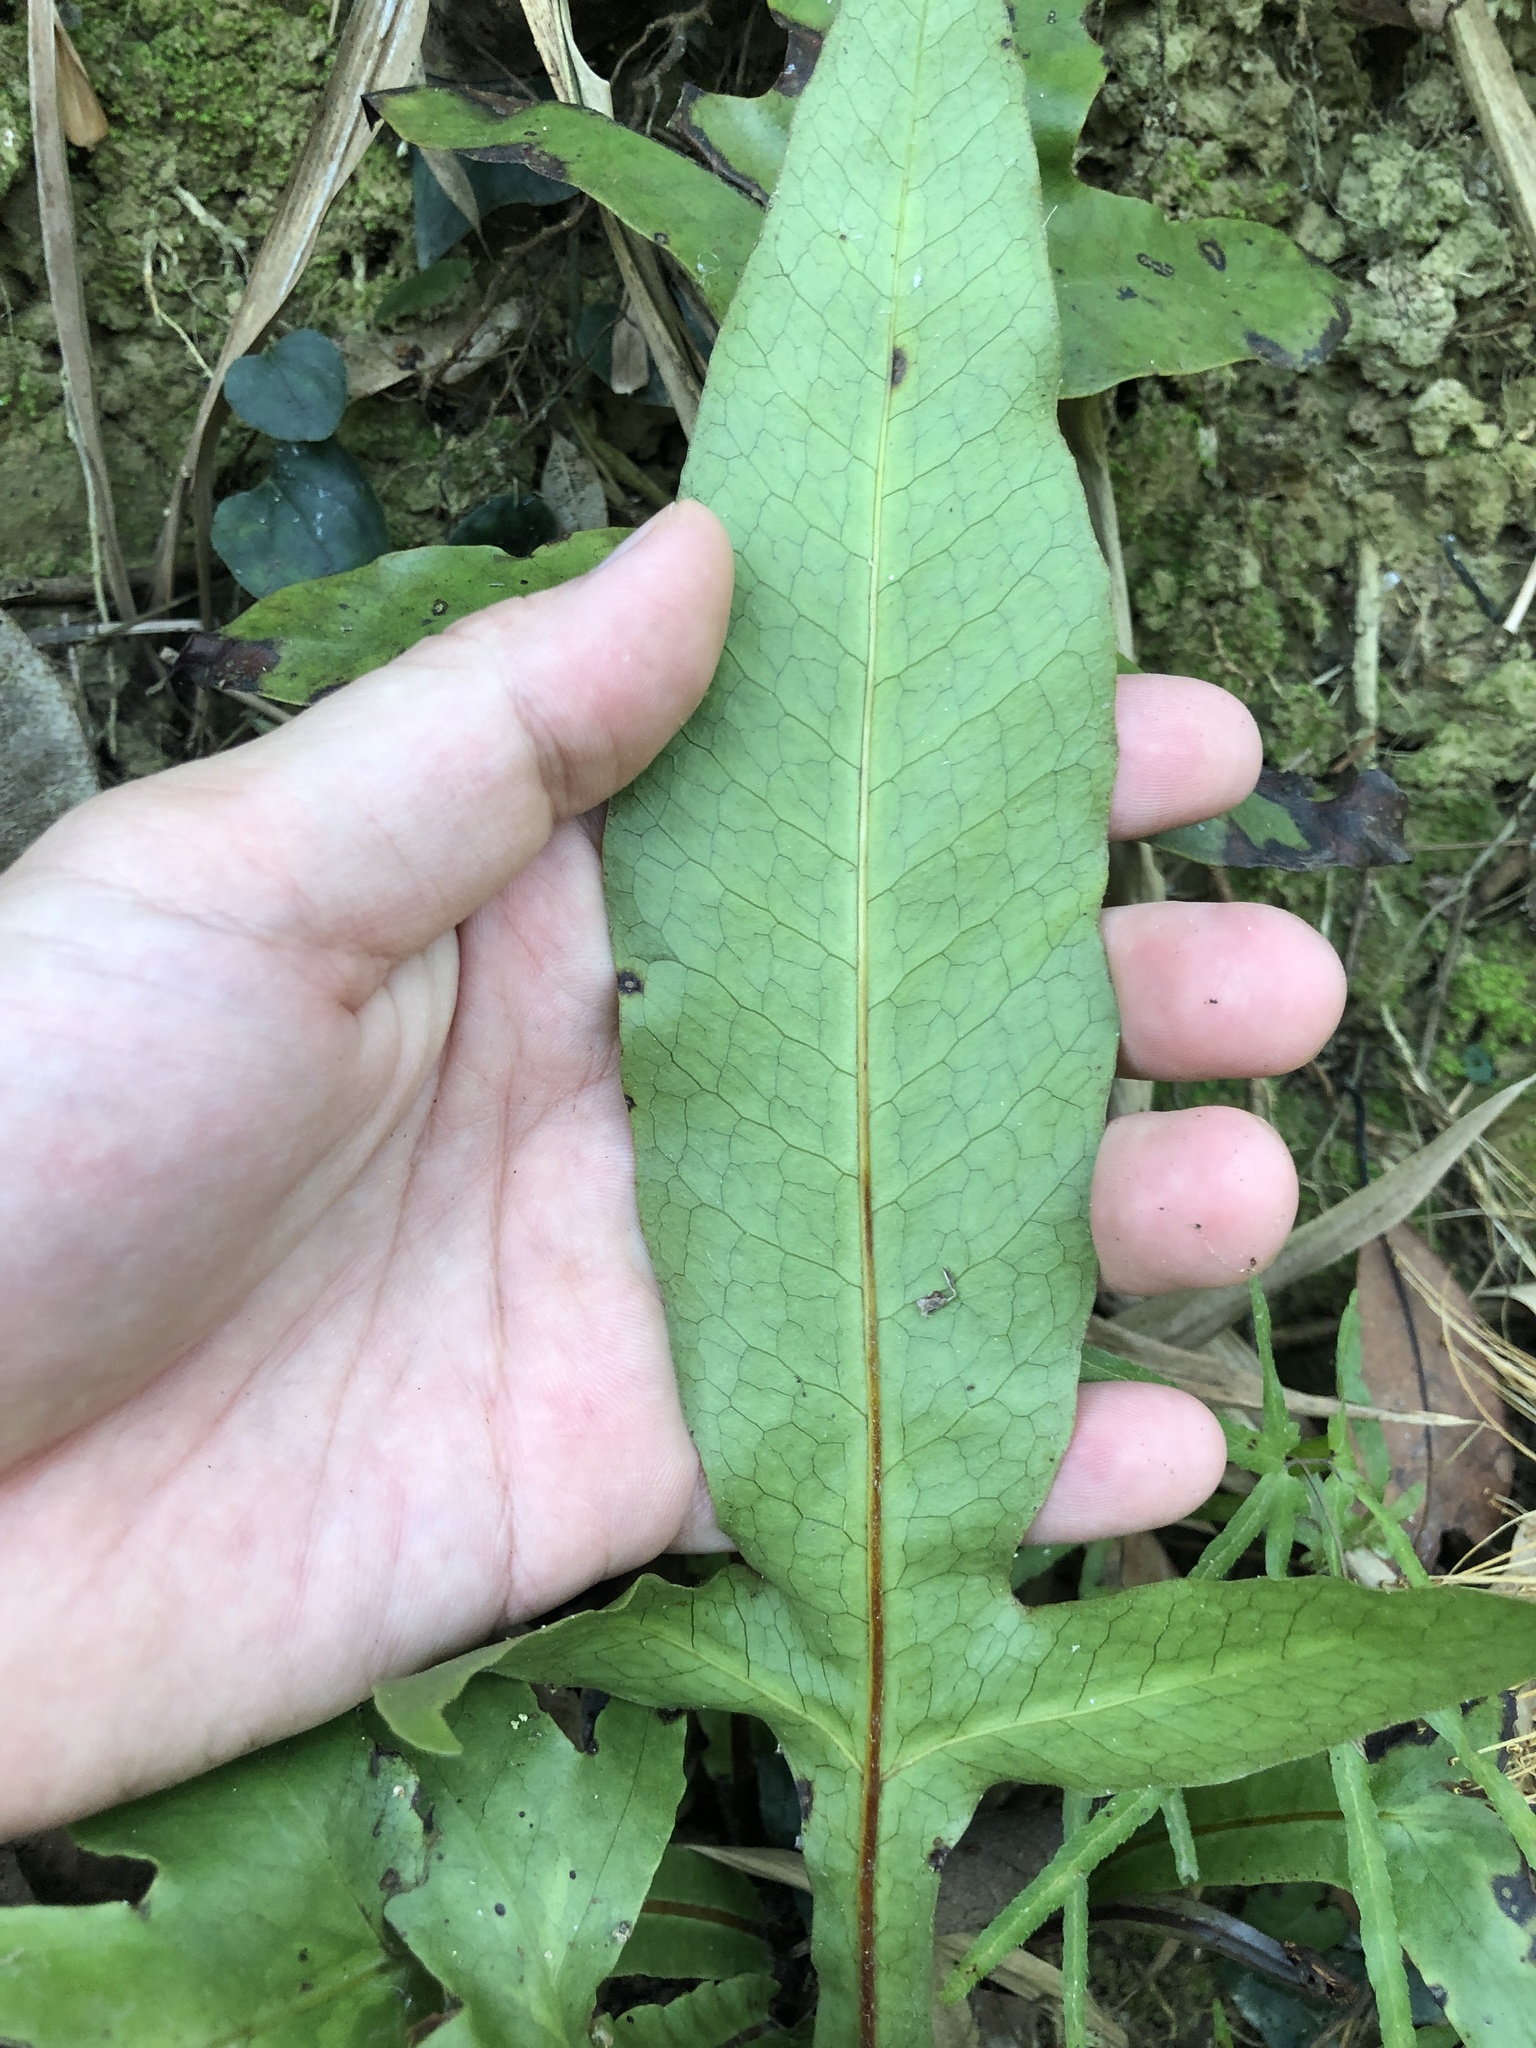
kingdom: Plantae
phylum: Tracheophyta
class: Polypodiopsida
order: Polypodiales
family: Tectariaceae
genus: Tectaria
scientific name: Tectaria decurrens
